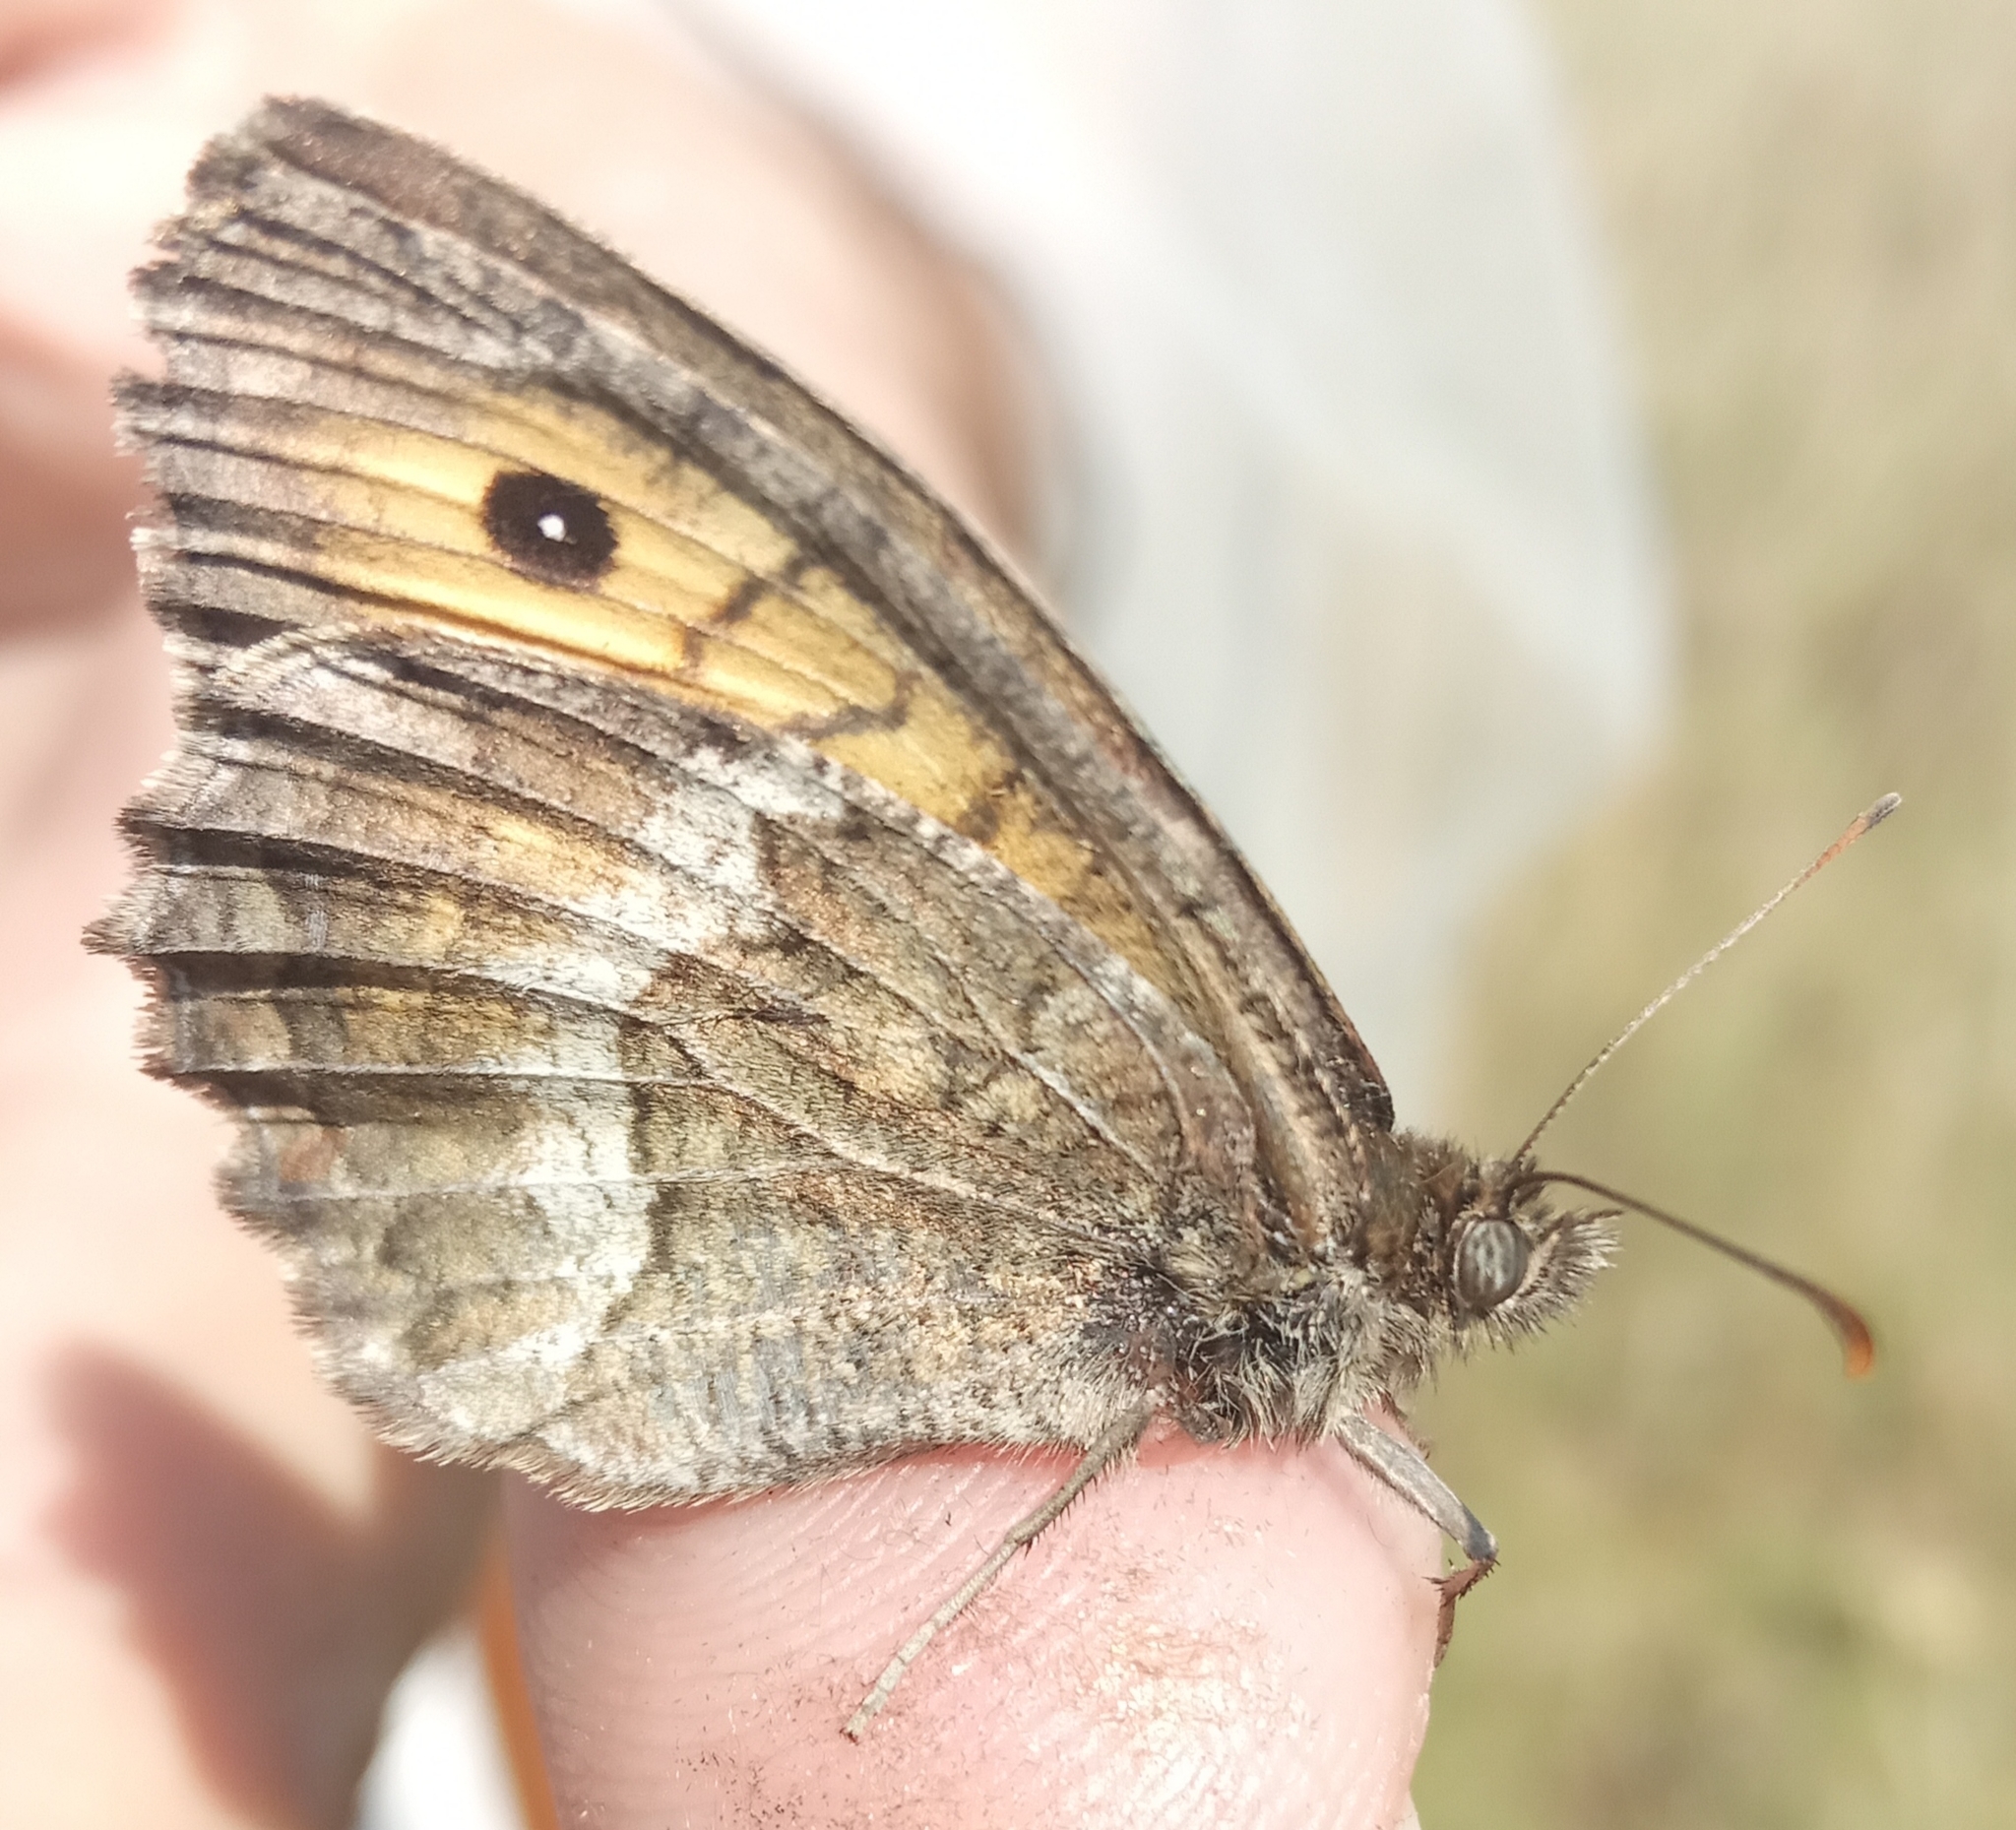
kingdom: Animalia
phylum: Arthropoda
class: Insecta
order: Lepidoptera
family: Nymphalidae
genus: Arethusana
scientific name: Arethusana arethusa
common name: False grayling
